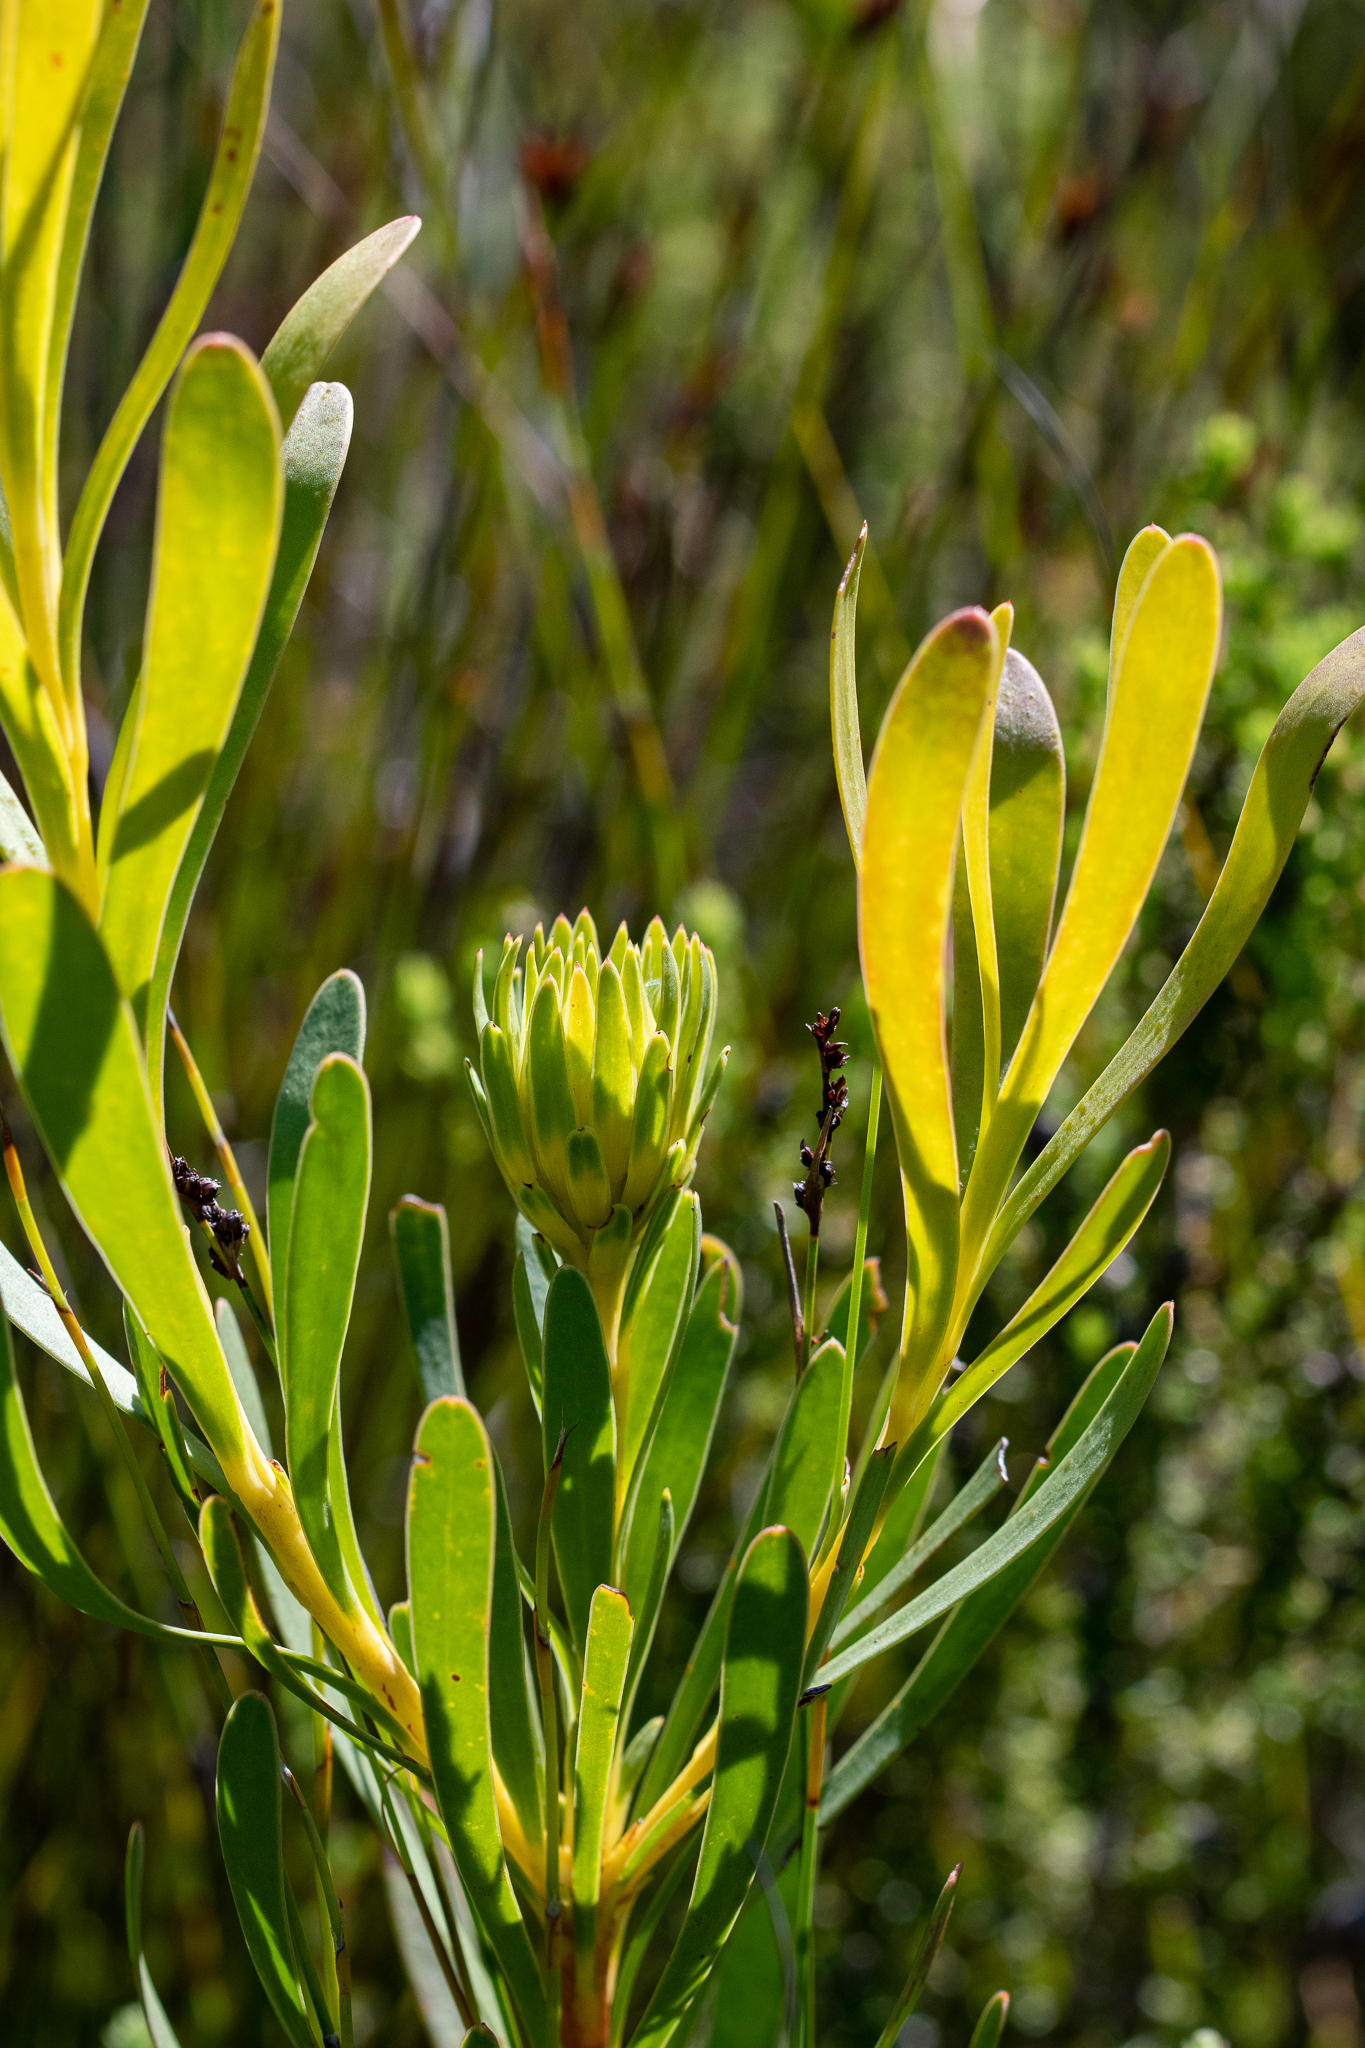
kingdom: Plantae
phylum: Tracheophyta
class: Magnoliopsida
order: Proteales
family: Proteaceae
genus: Aulax
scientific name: Aulax umbellata
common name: Broad-leaf featherbush
